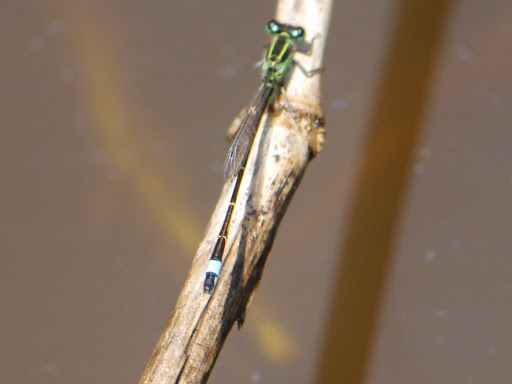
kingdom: Animalia
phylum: Arthropoda
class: Insecta
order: Odonata
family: Coenagrionidae
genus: Ischnura
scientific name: Ischnura ramburii
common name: Rambur's forktail
